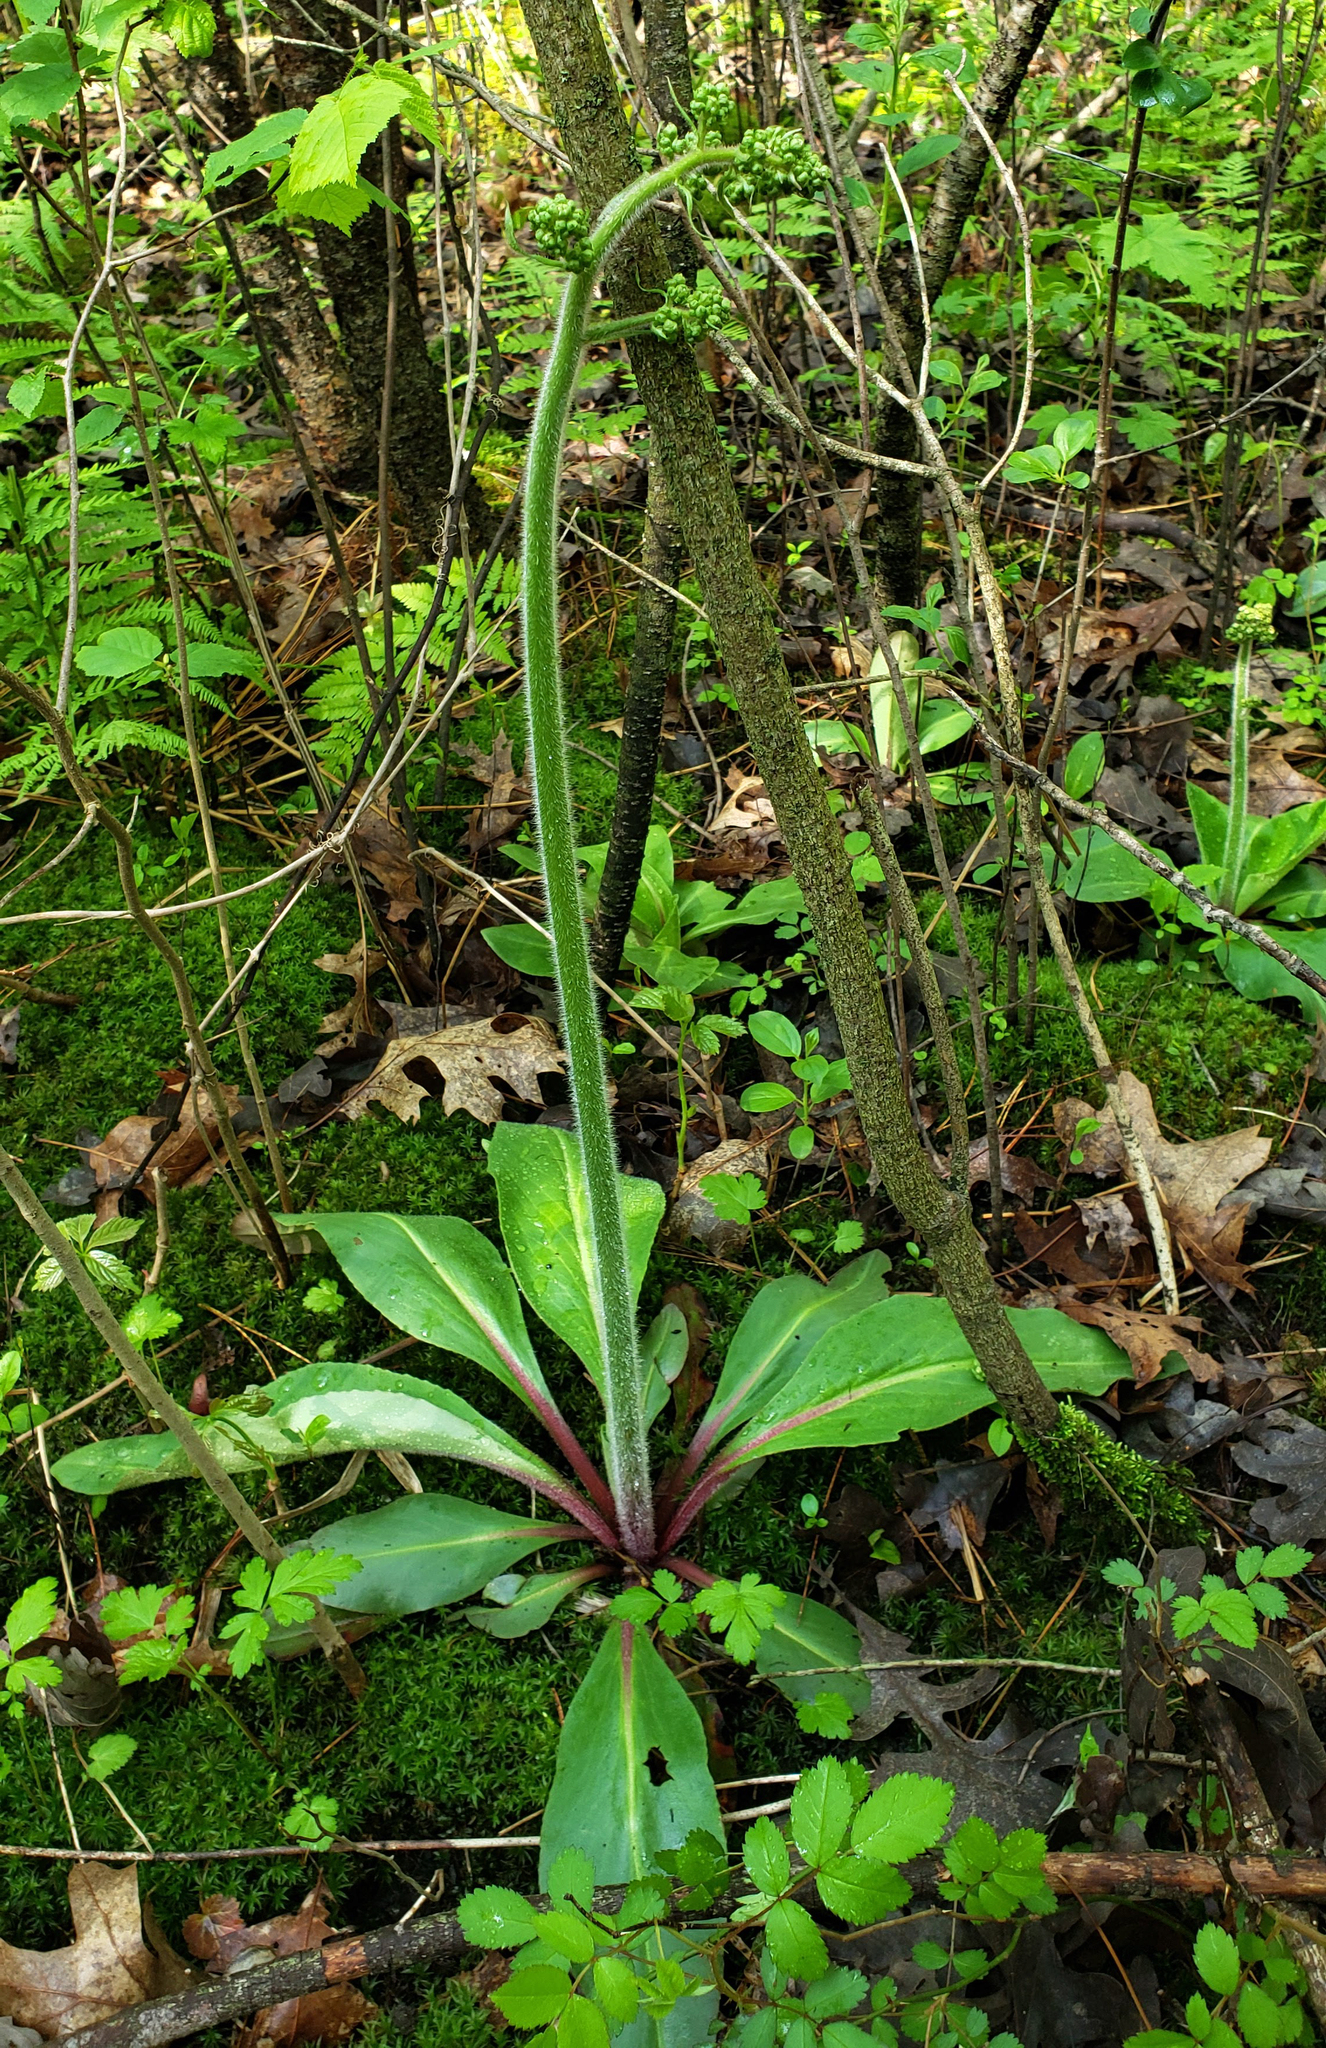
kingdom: Plantae
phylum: Tracheophyta
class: Magnoliopsida
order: Saxifragales
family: Saxifragaceae
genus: Micranthes
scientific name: Micranthes pensylvanica
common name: Marsh saxifrage
